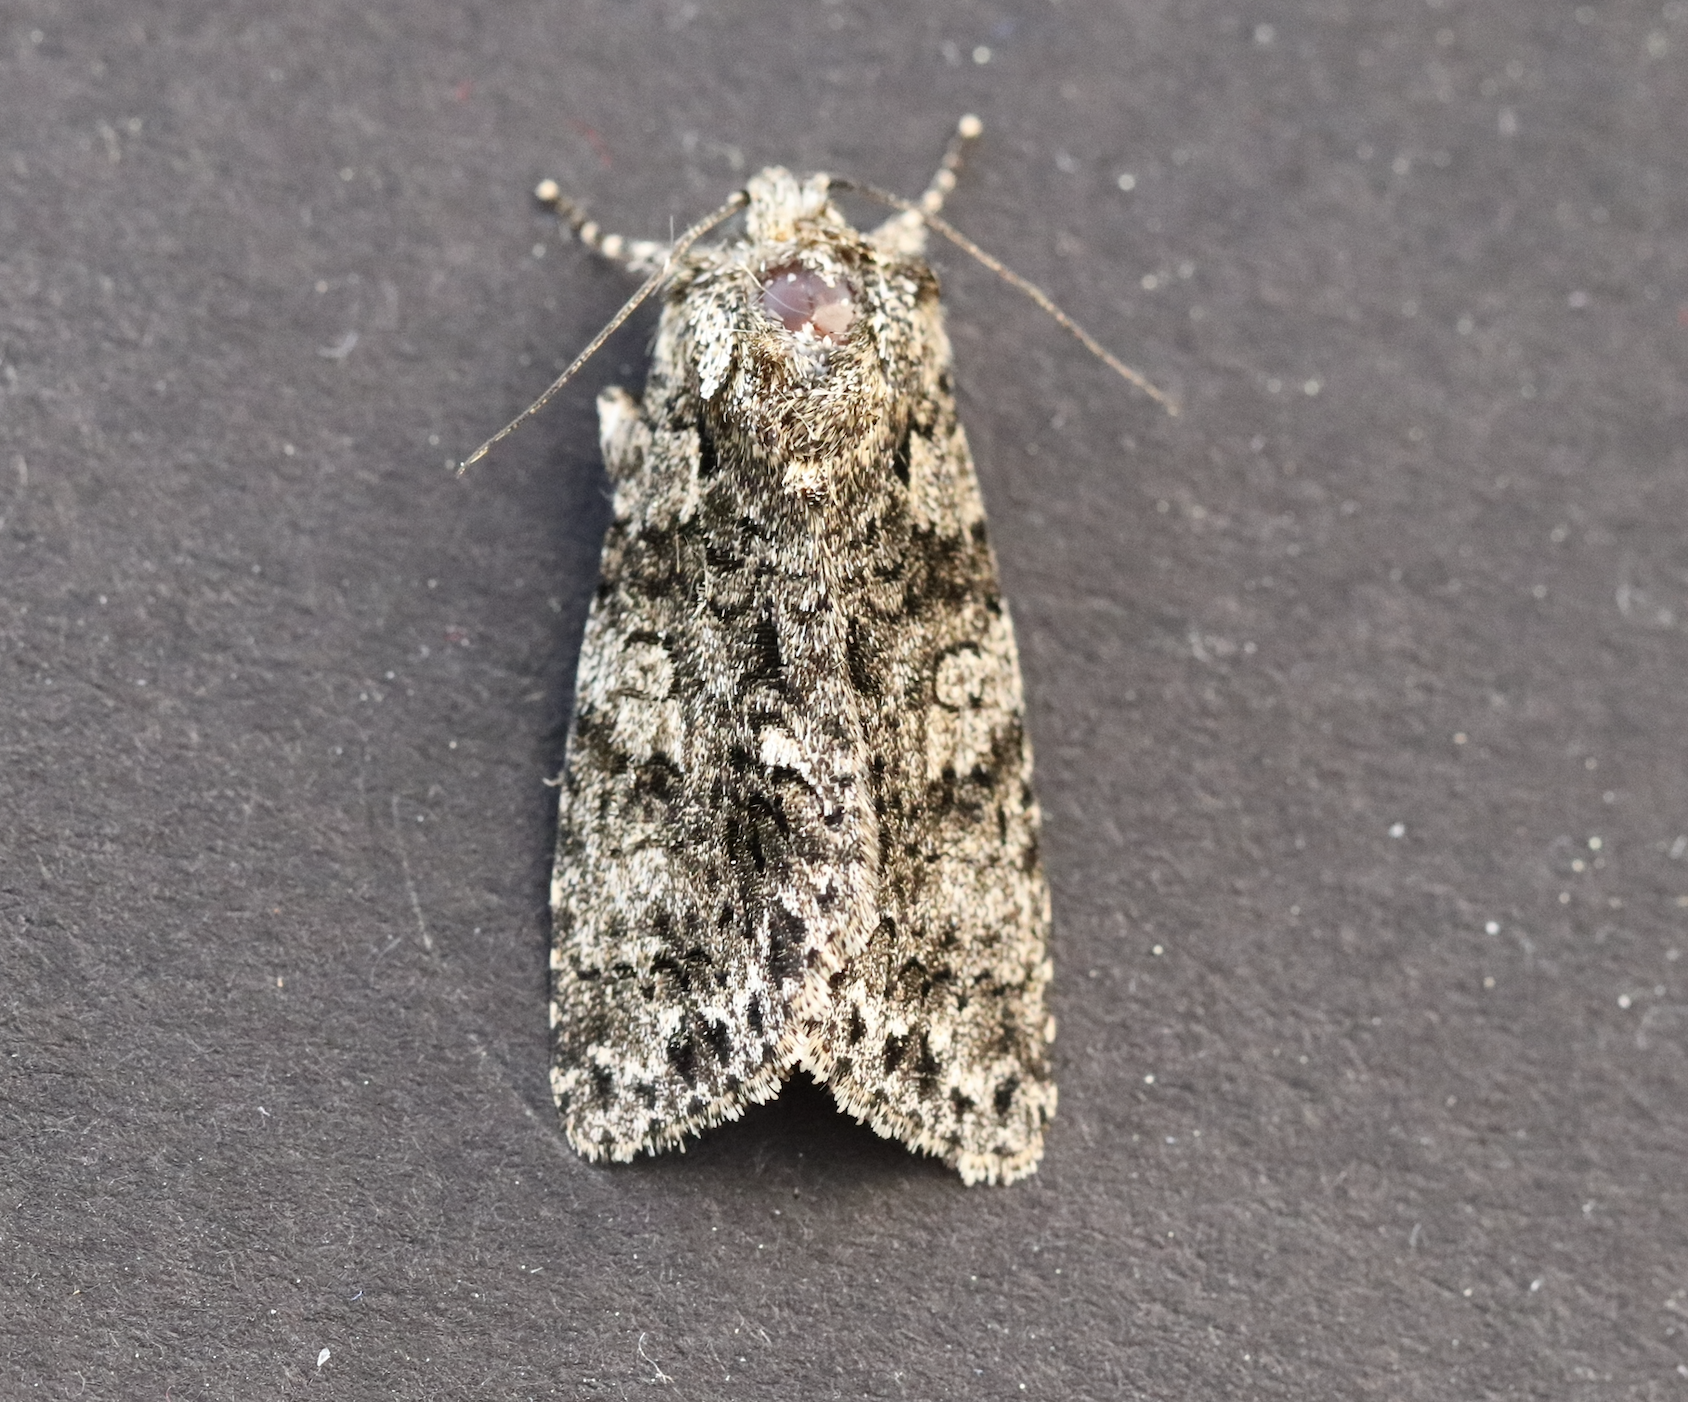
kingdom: Animalia
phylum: Arthropoda
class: Insecta
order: Lepidoptera
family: Noctuidae
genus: Acronicta
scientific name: Acronicta rumicis
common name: Knot grass
